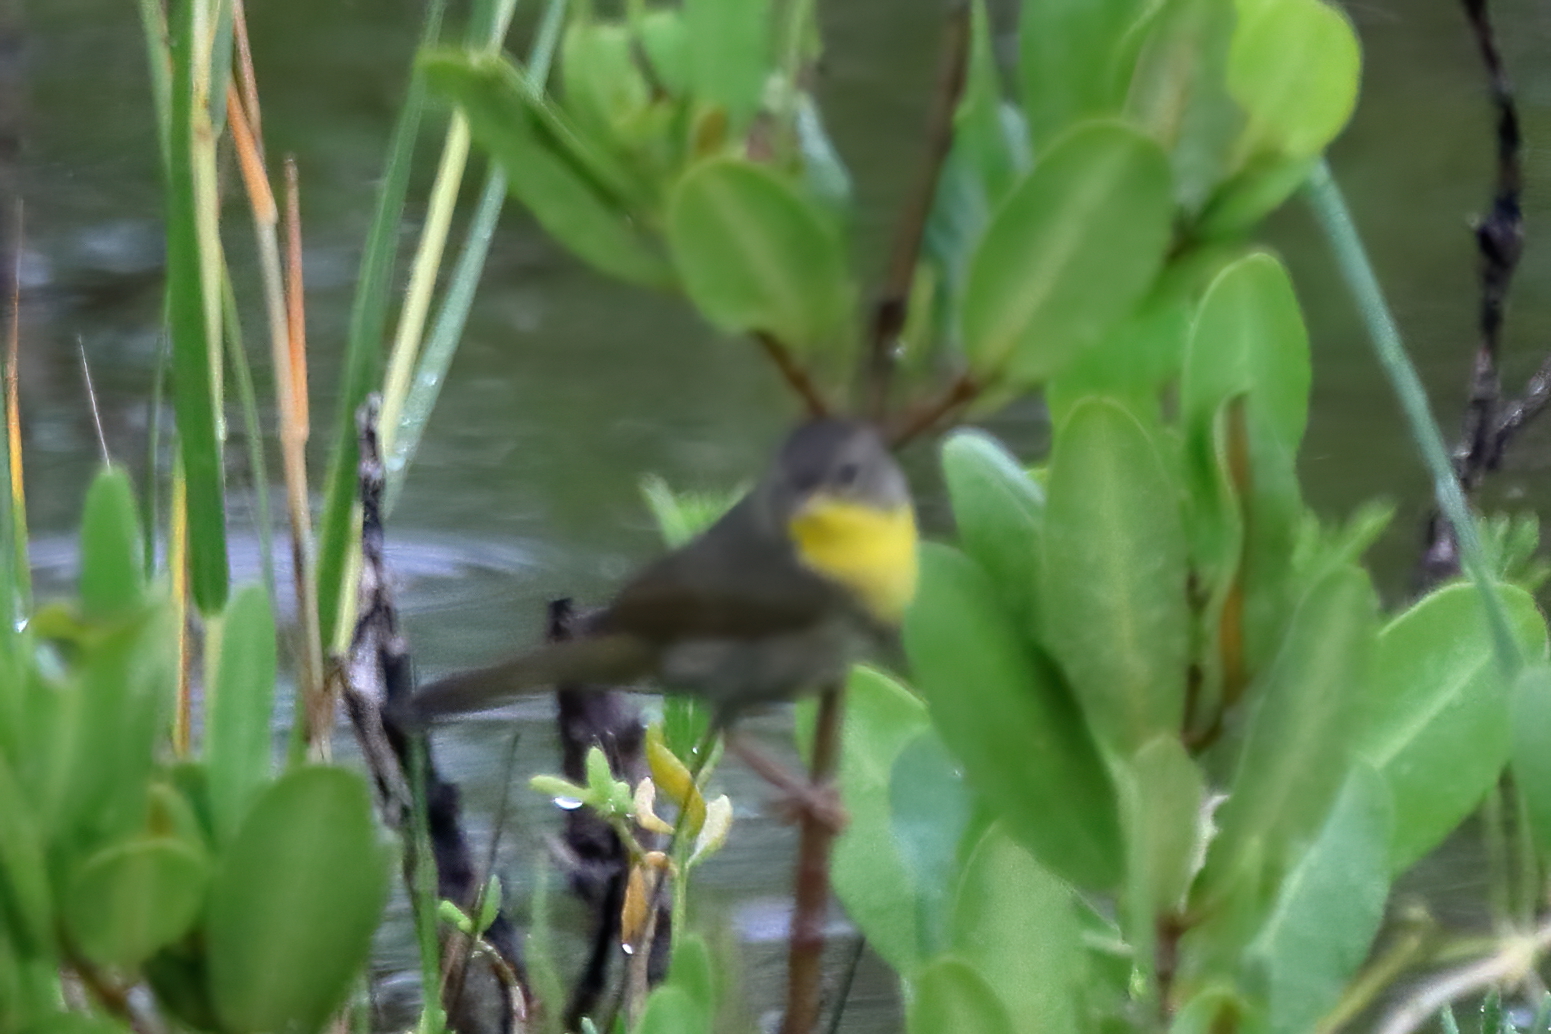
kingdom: Animalia
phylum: Chordata
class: Aves
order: Passeriformes
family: Parulidae
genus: Geothlypis
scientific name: Geothlypis trichas
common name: Common yellowthroat
